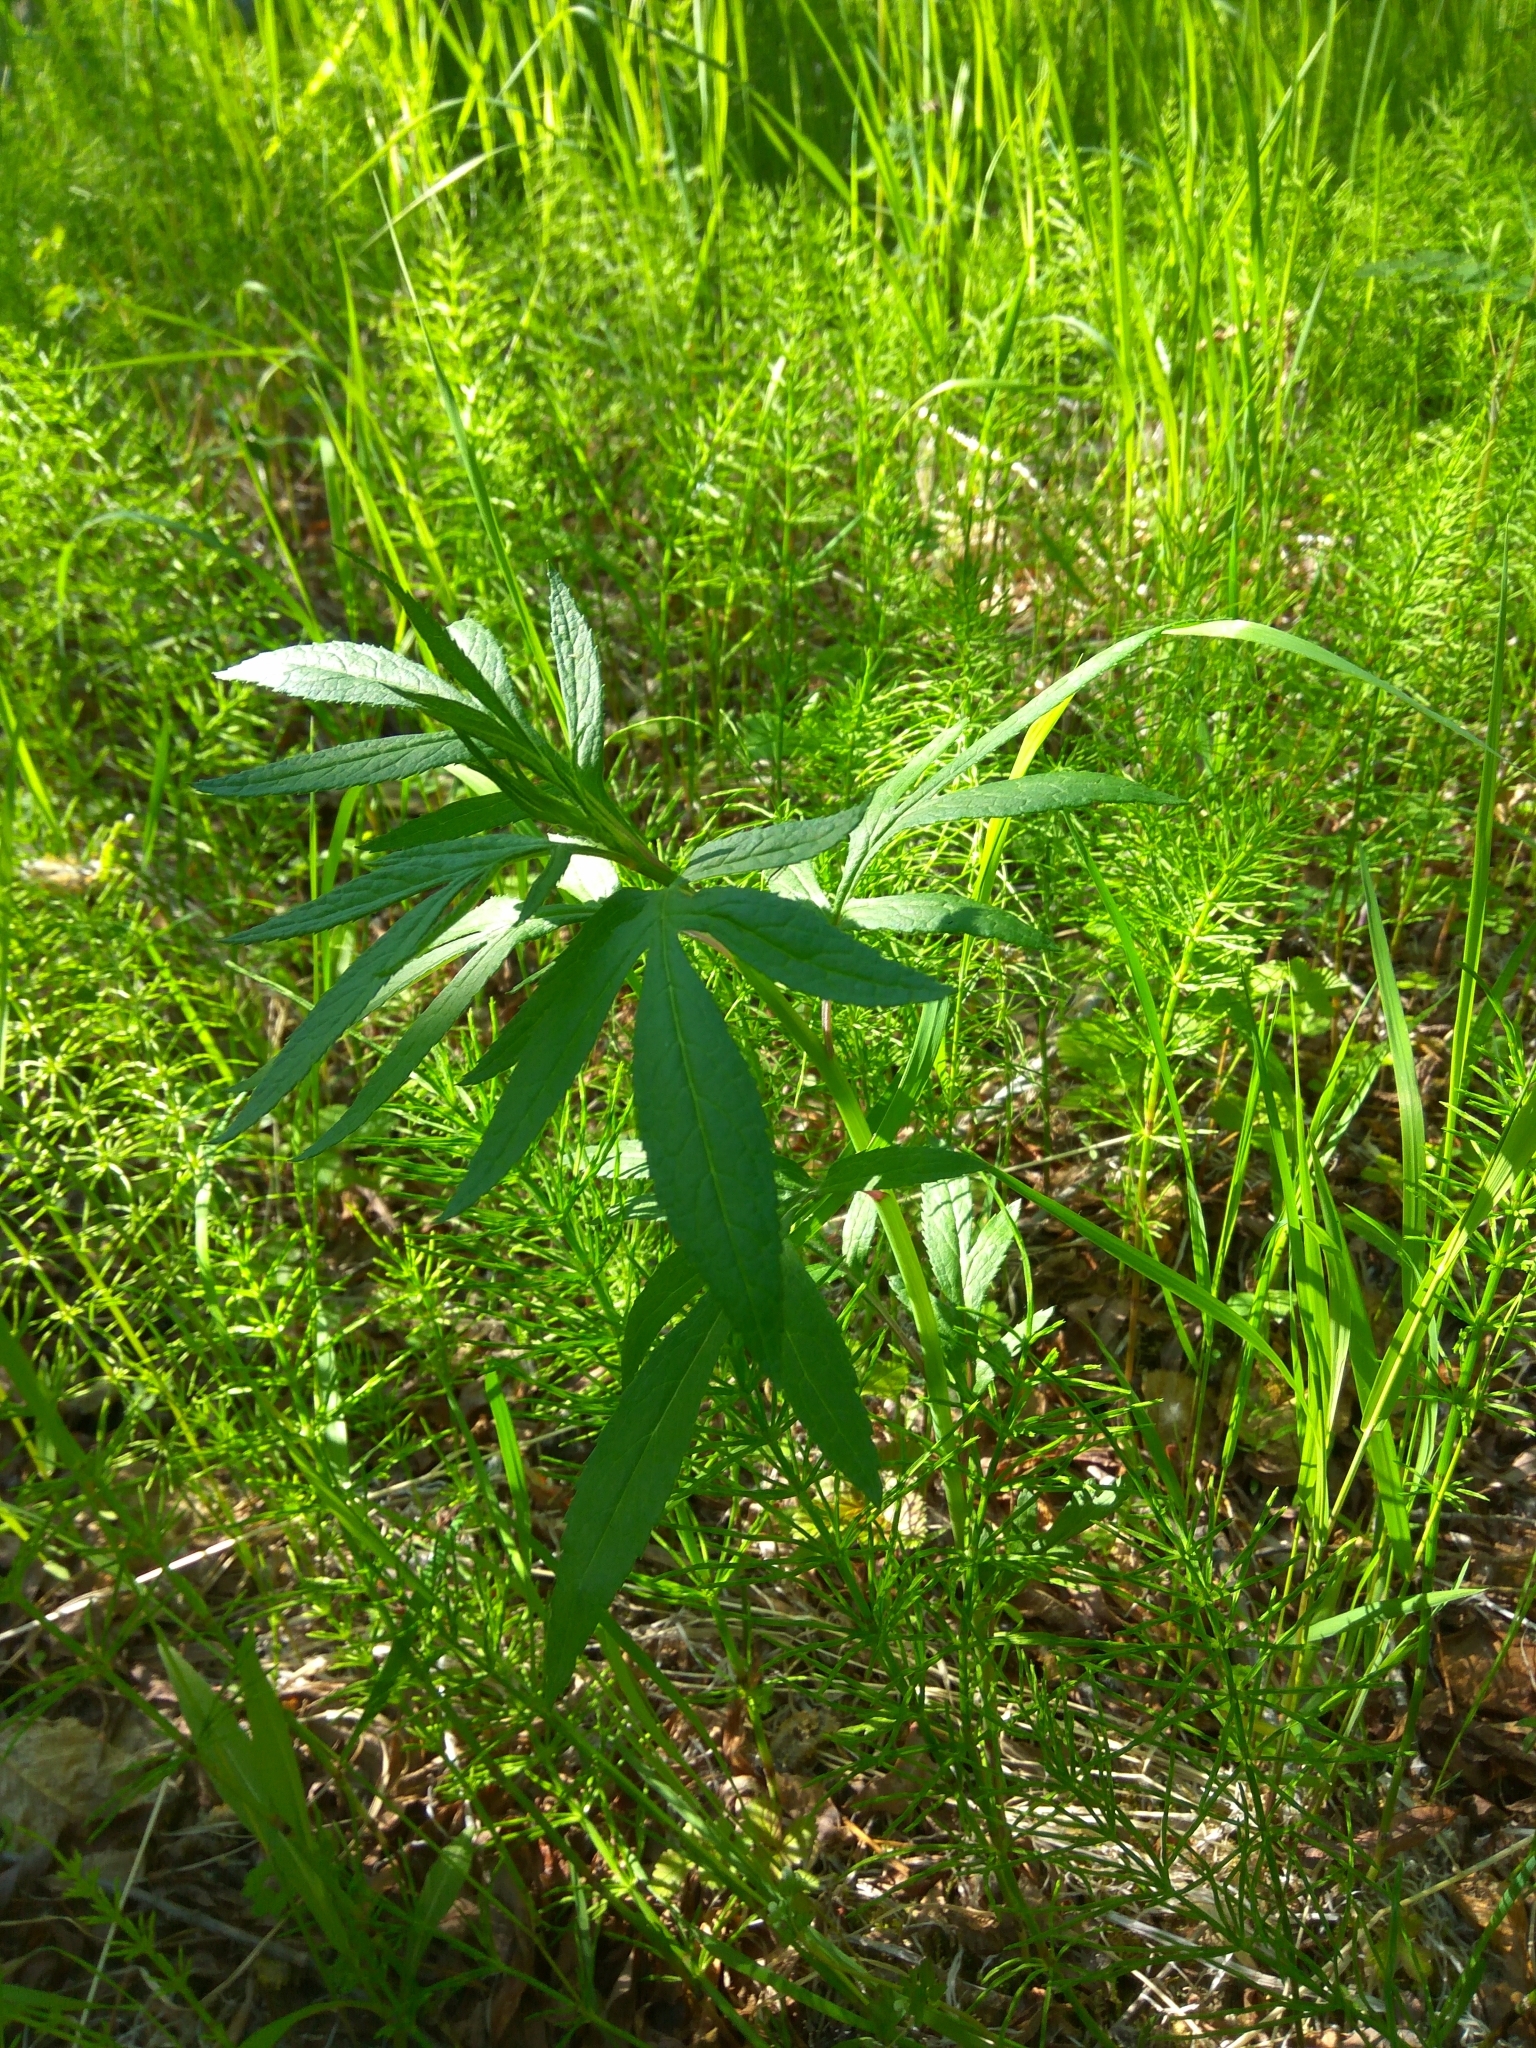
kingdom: Plantae
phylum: Tracheophyta
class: Magnoliopsida
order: Asterales
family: Asteraceae
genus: Jacobaea
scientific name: Jacobaea cannabifolia
